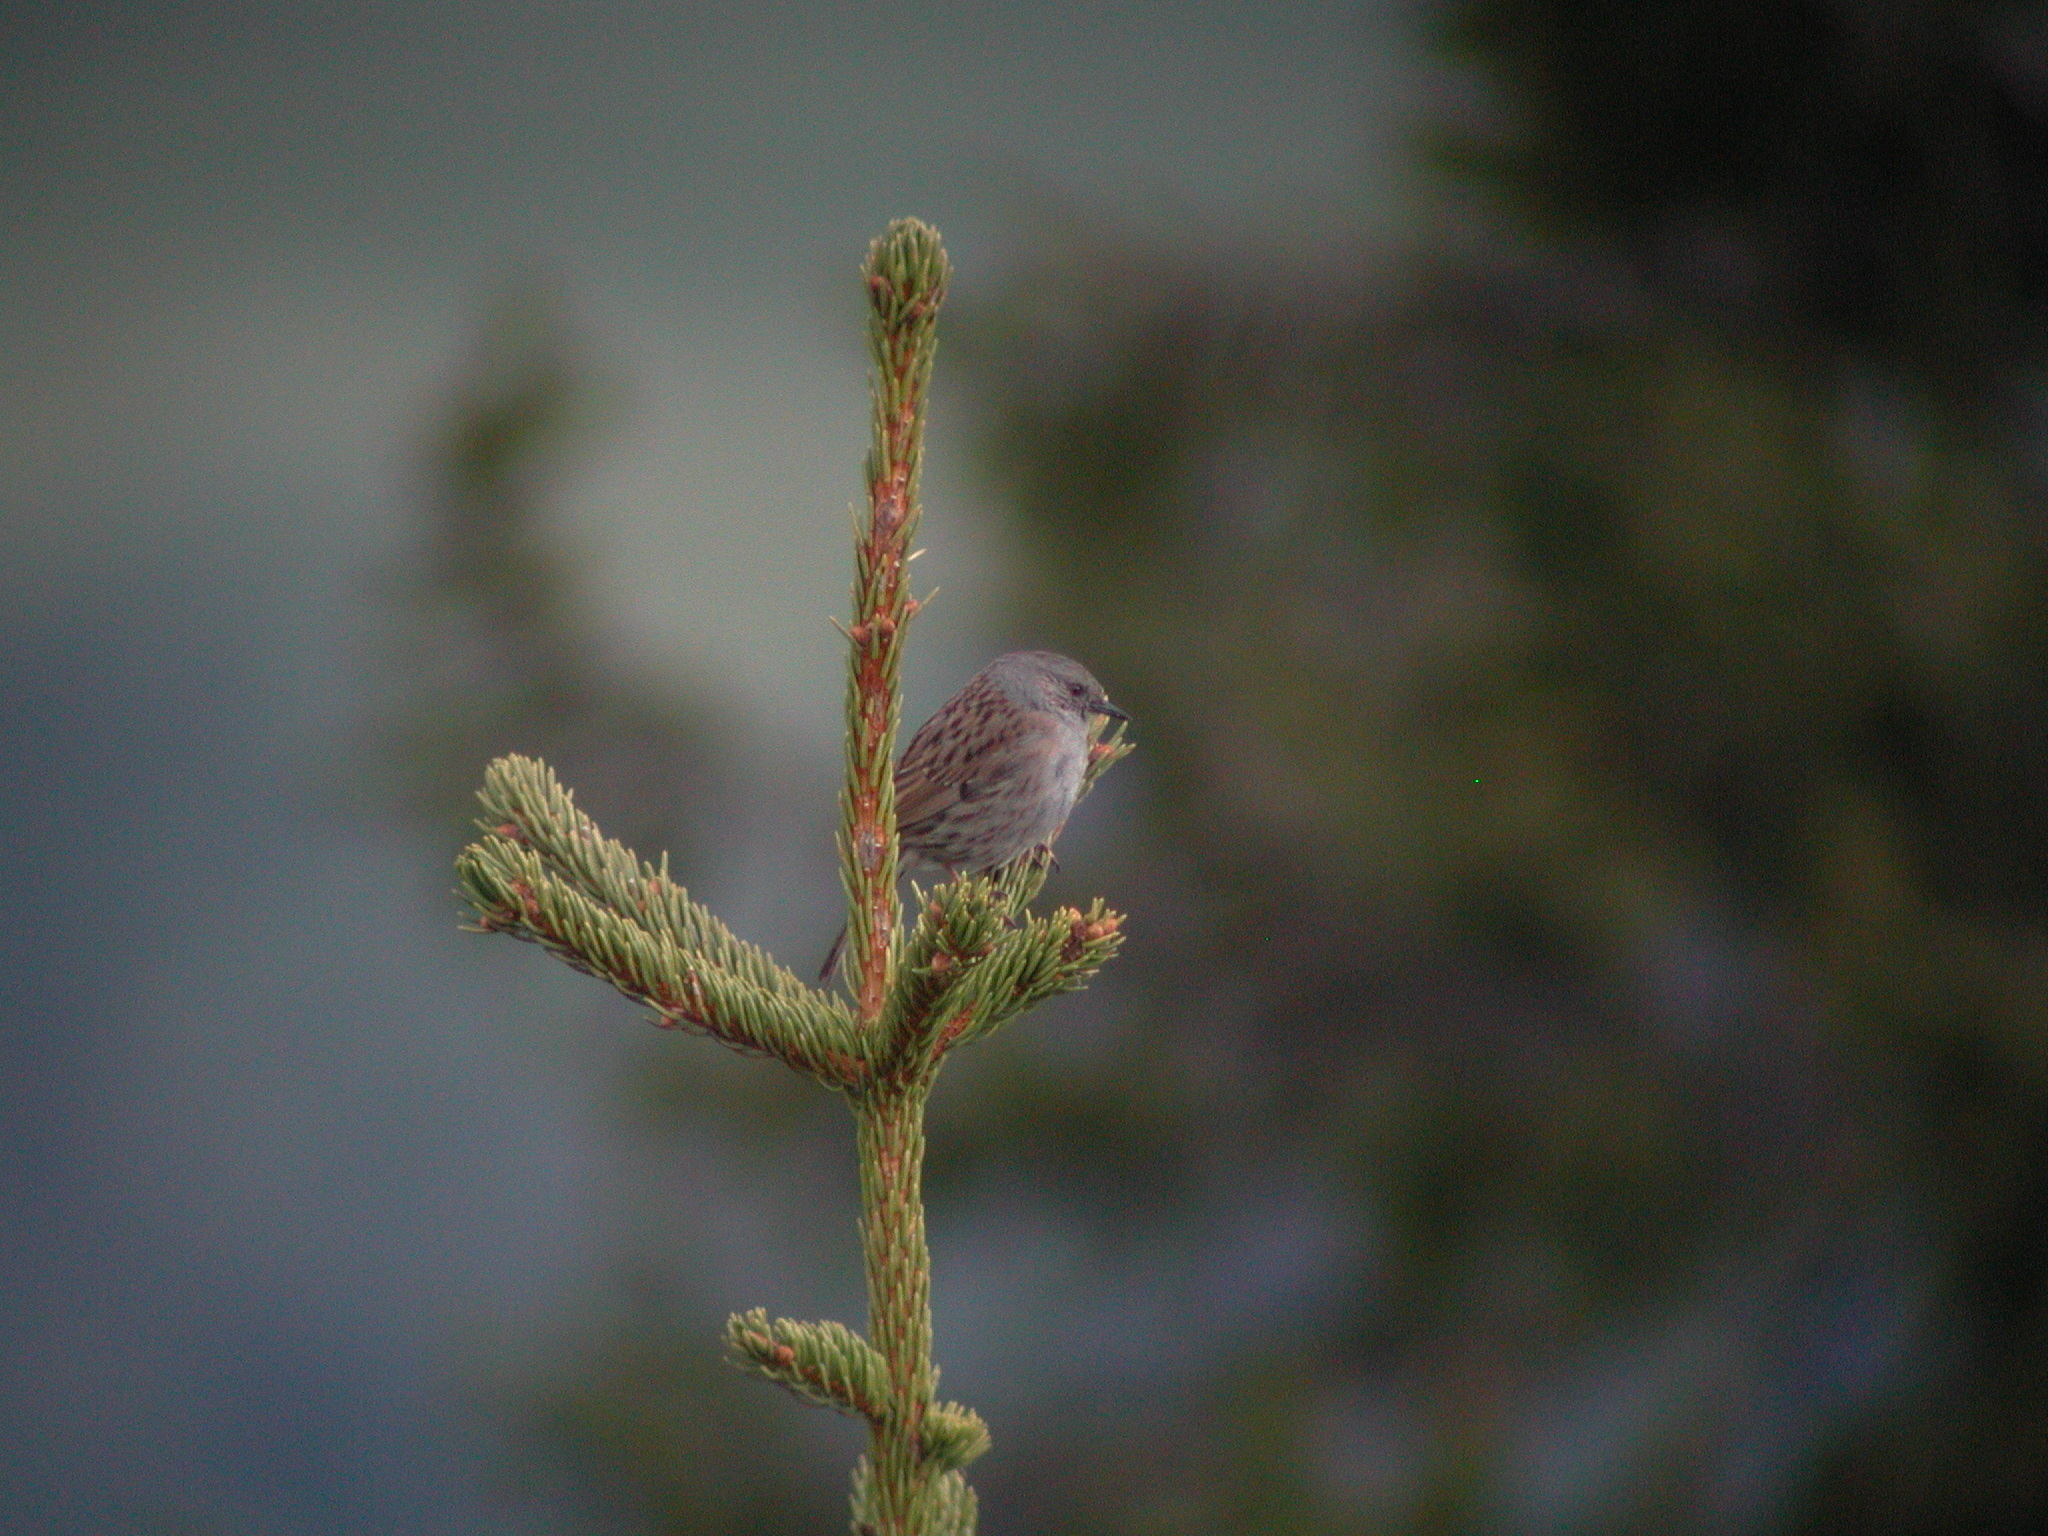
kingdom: Animalia
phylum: Chordata
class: Aves
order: Passeriformes
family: Prunellidae
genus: Prunella
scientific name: Prunella modularis
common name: Dunnock
